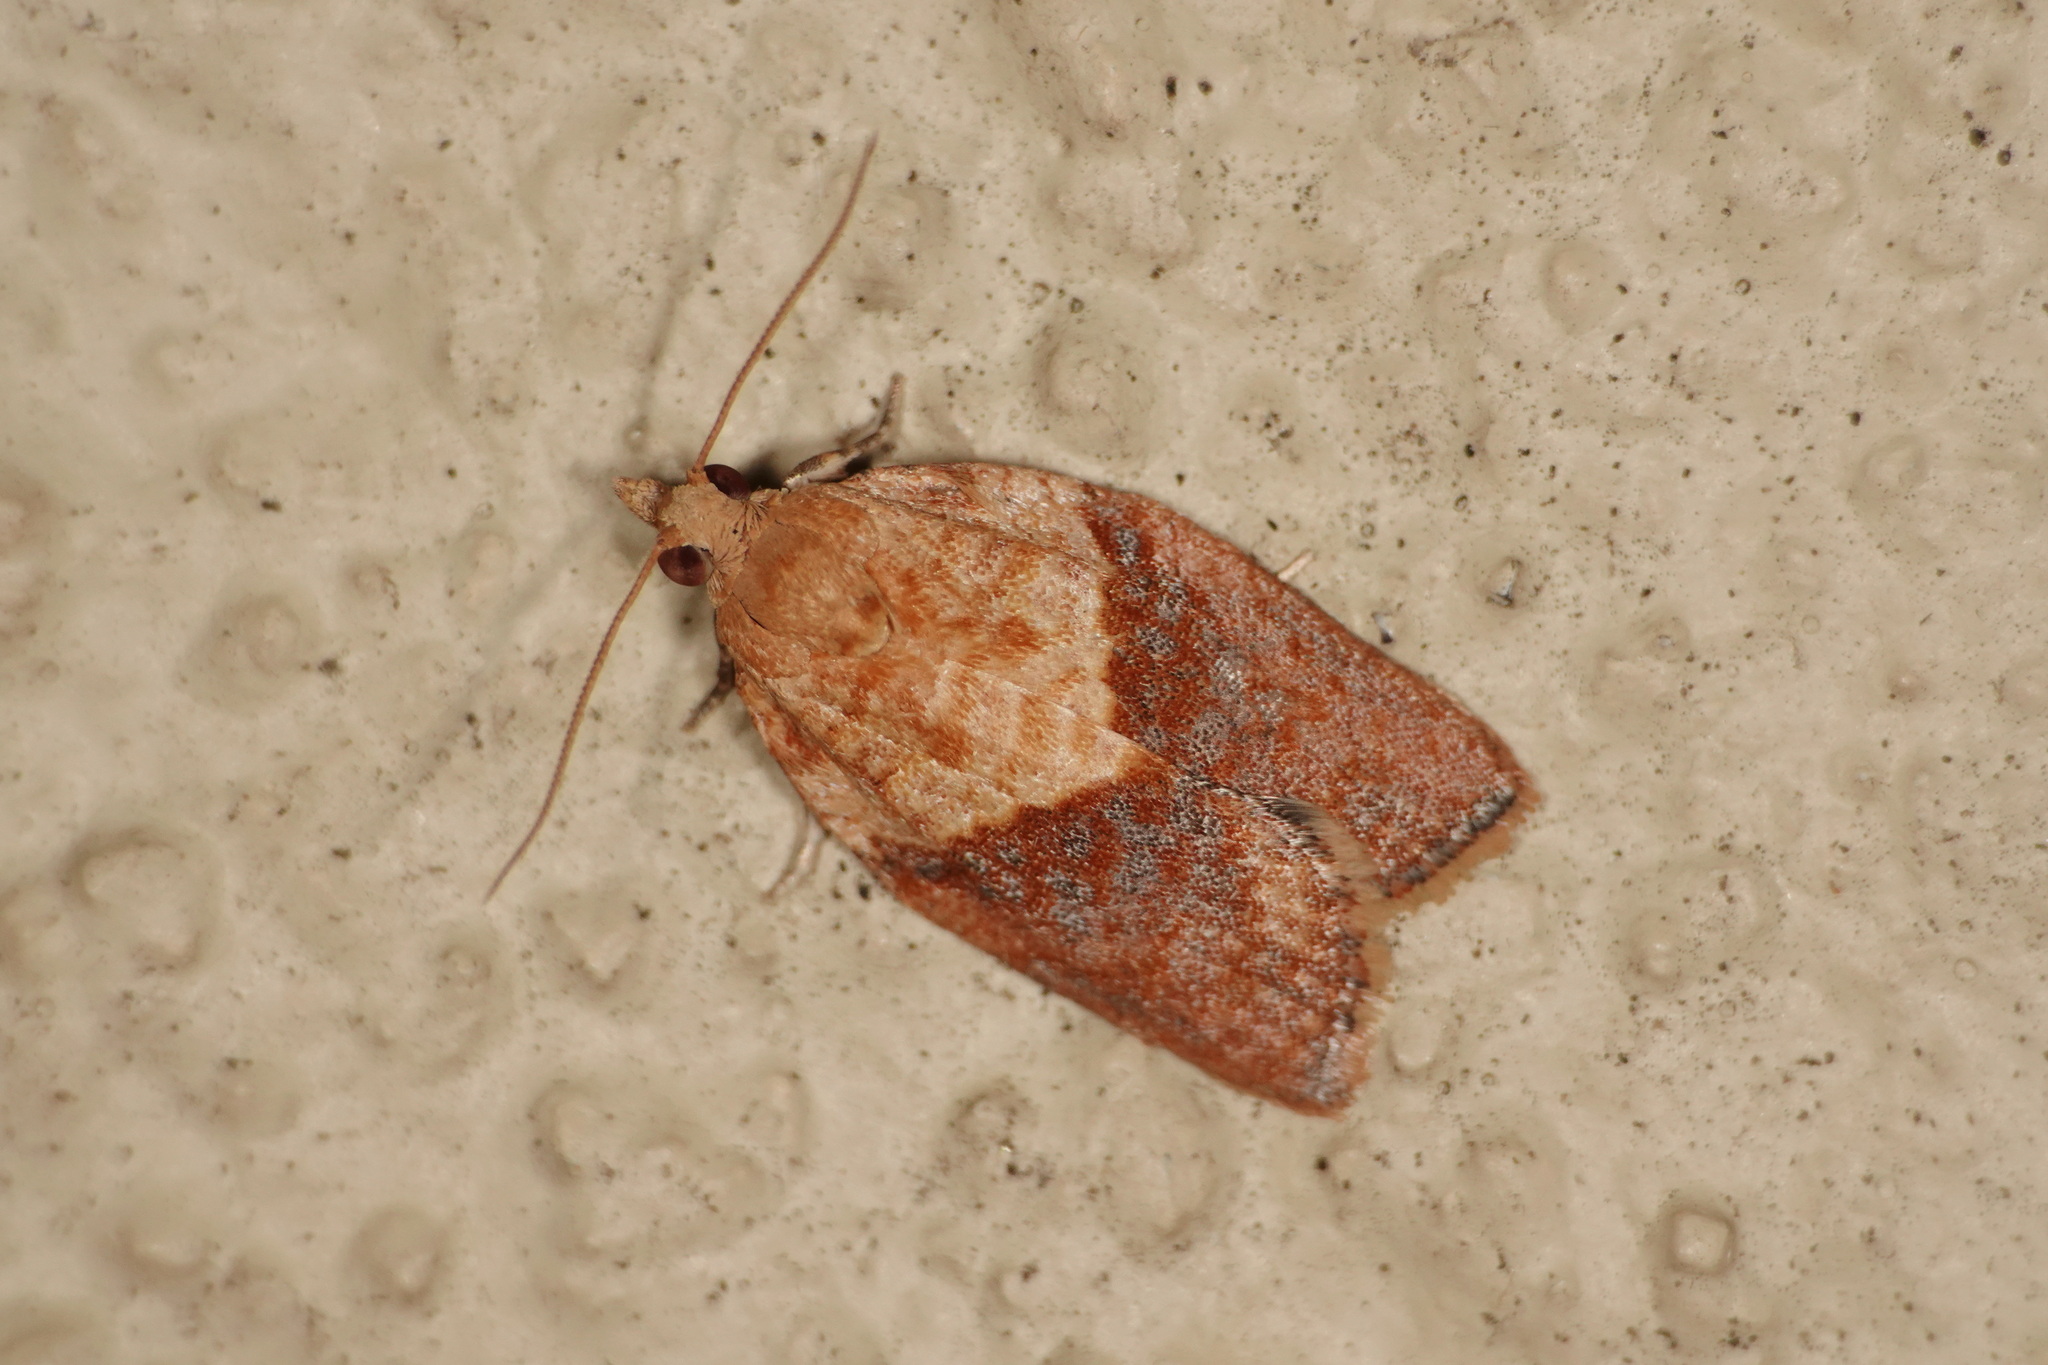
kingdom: Animalia
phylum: Arthropoda
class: Insecta
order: Lepidoptera
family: Tortricidae
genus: Epiphyas
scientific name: Epiphyas postvittana
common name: Light brown apple moth
